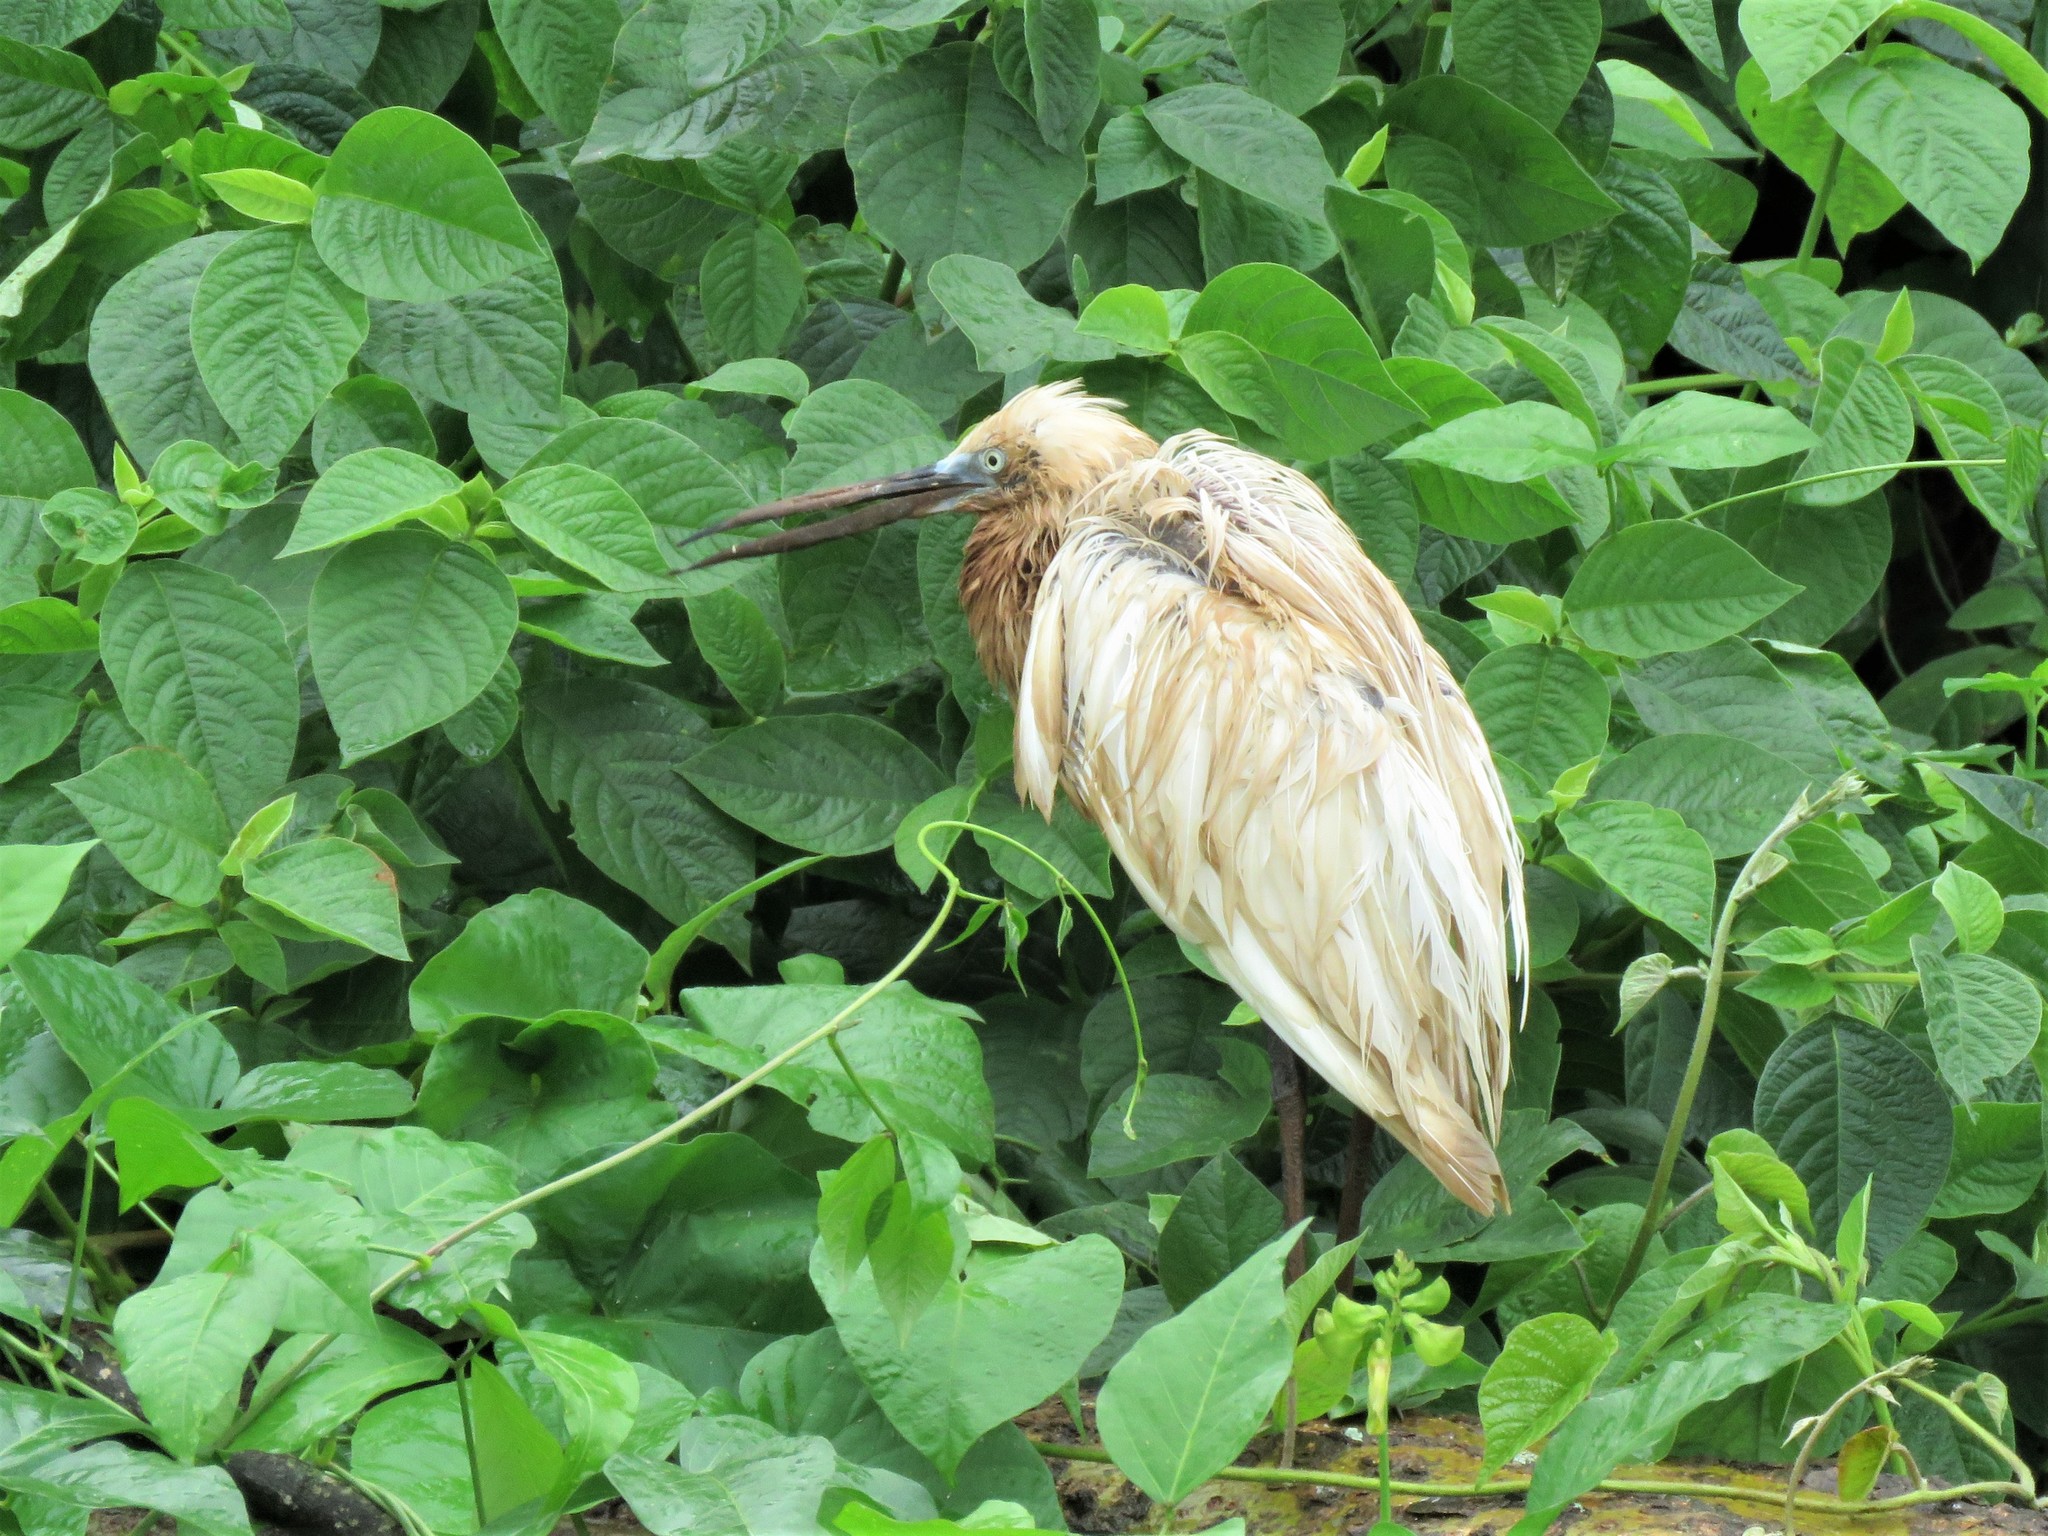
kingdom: Animalia
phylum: Chordata
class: Aves
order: Pelecaniformes
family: Ardeidae
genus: Egretta
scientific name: Egretta garzetta
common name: Little egret
